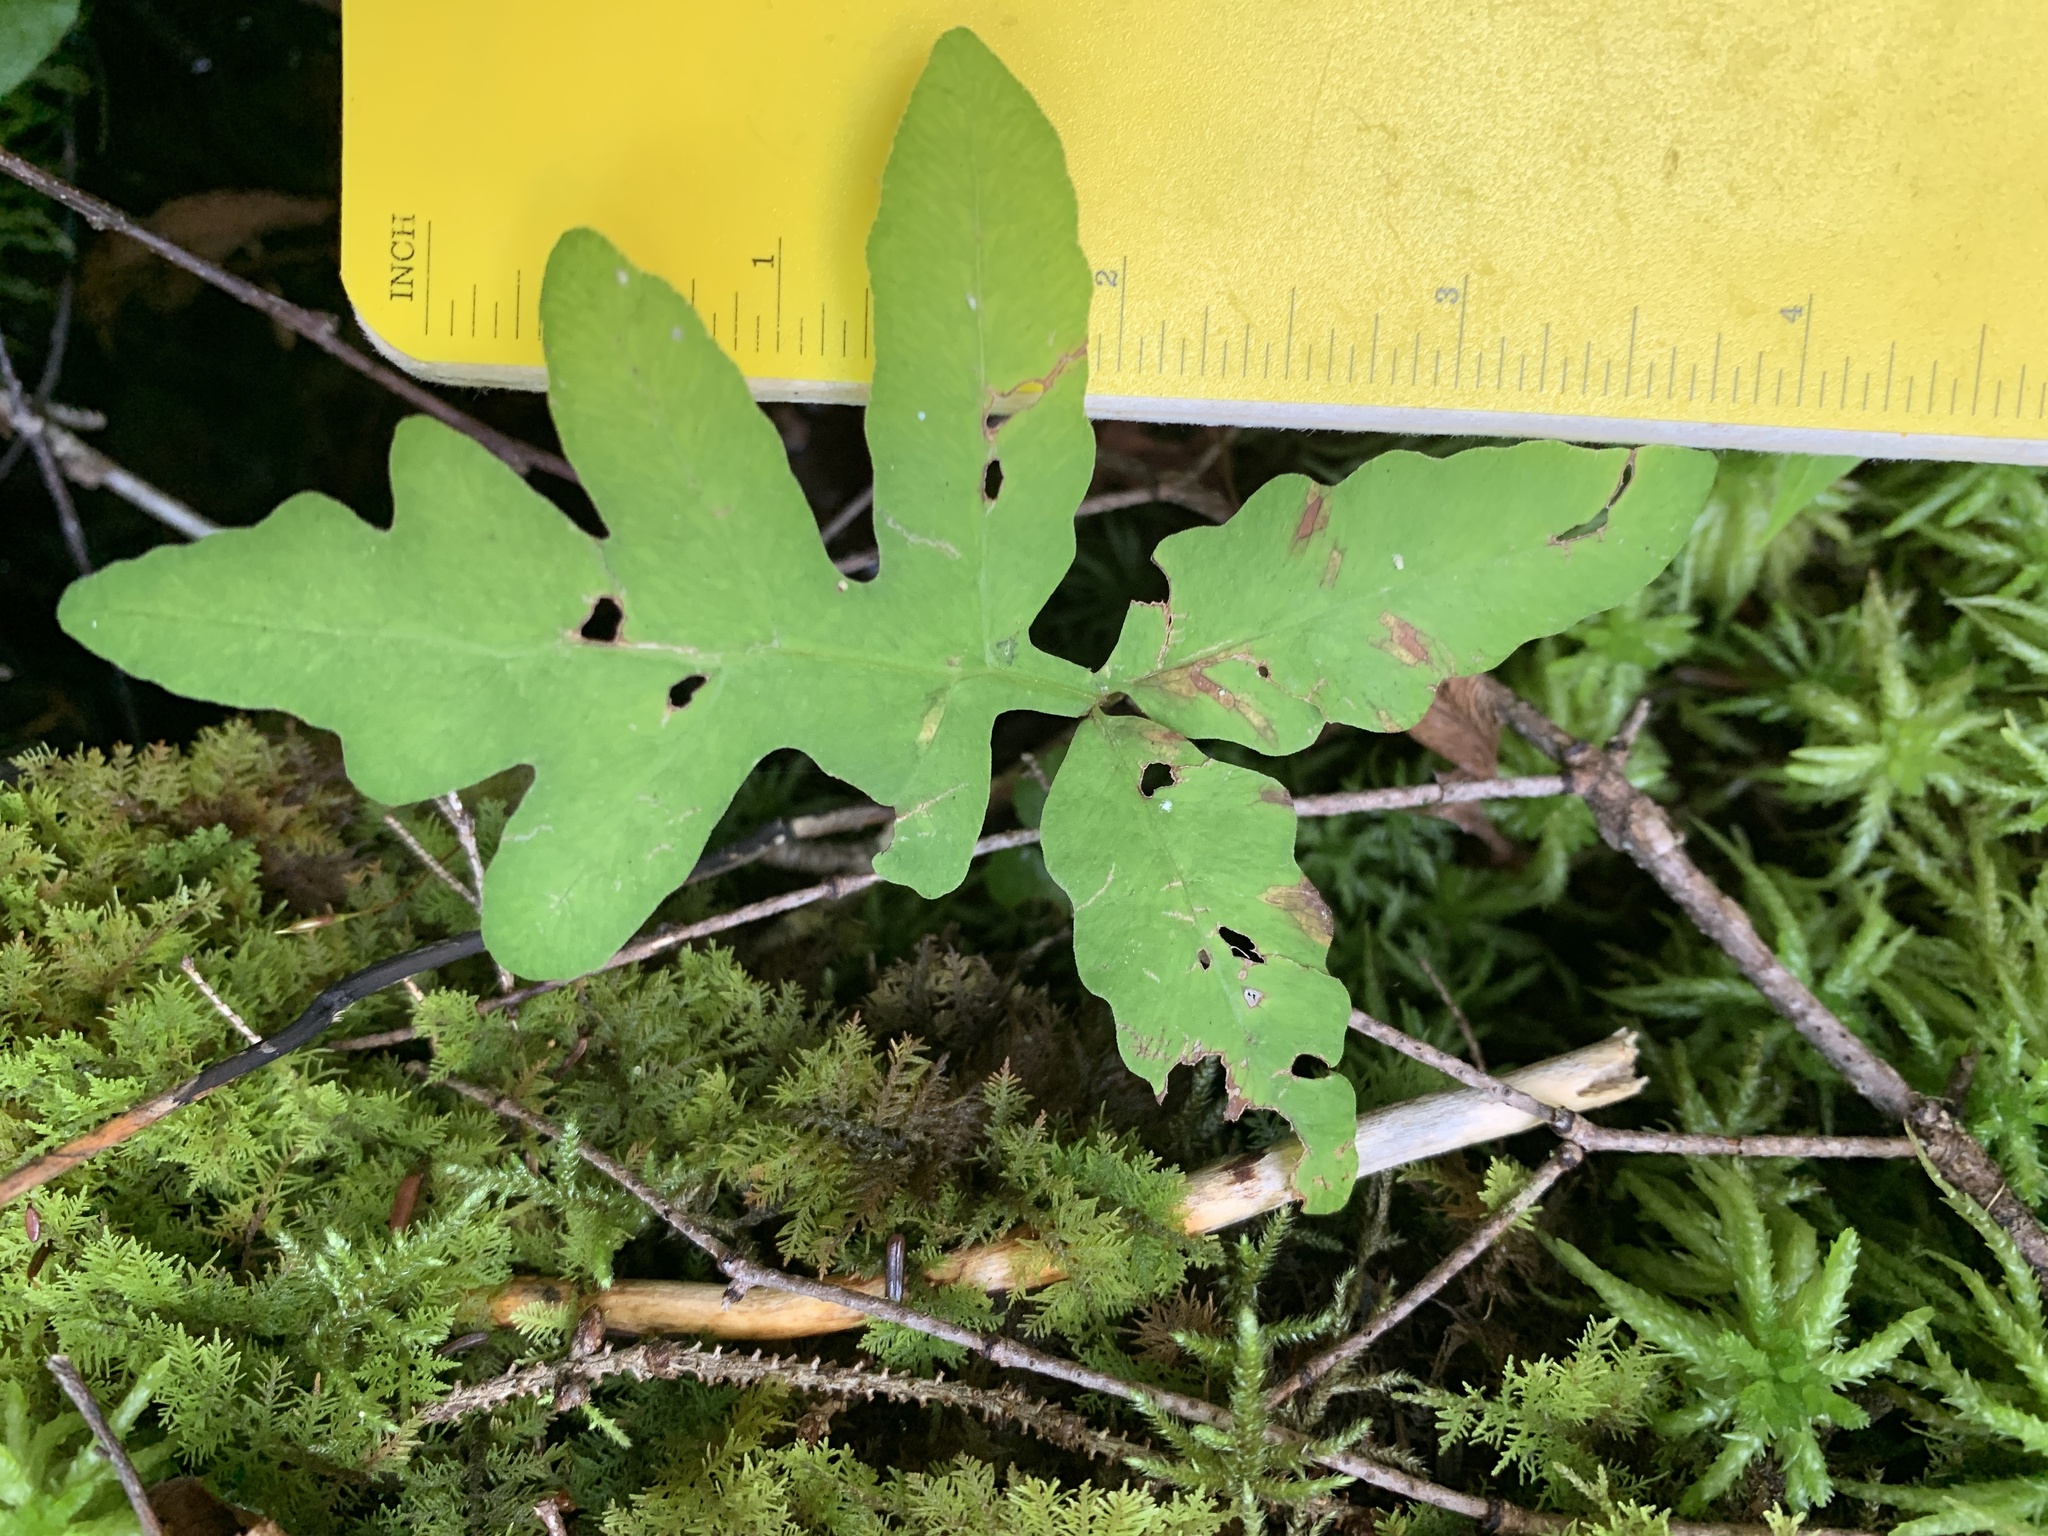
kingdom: Plantae
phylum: Tracheophyta
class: Polypodiopsida
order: Polypodiales
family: Onocleaceae
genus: Onoclea
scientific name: Onoclea sensibilis
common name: Sensitive fern
